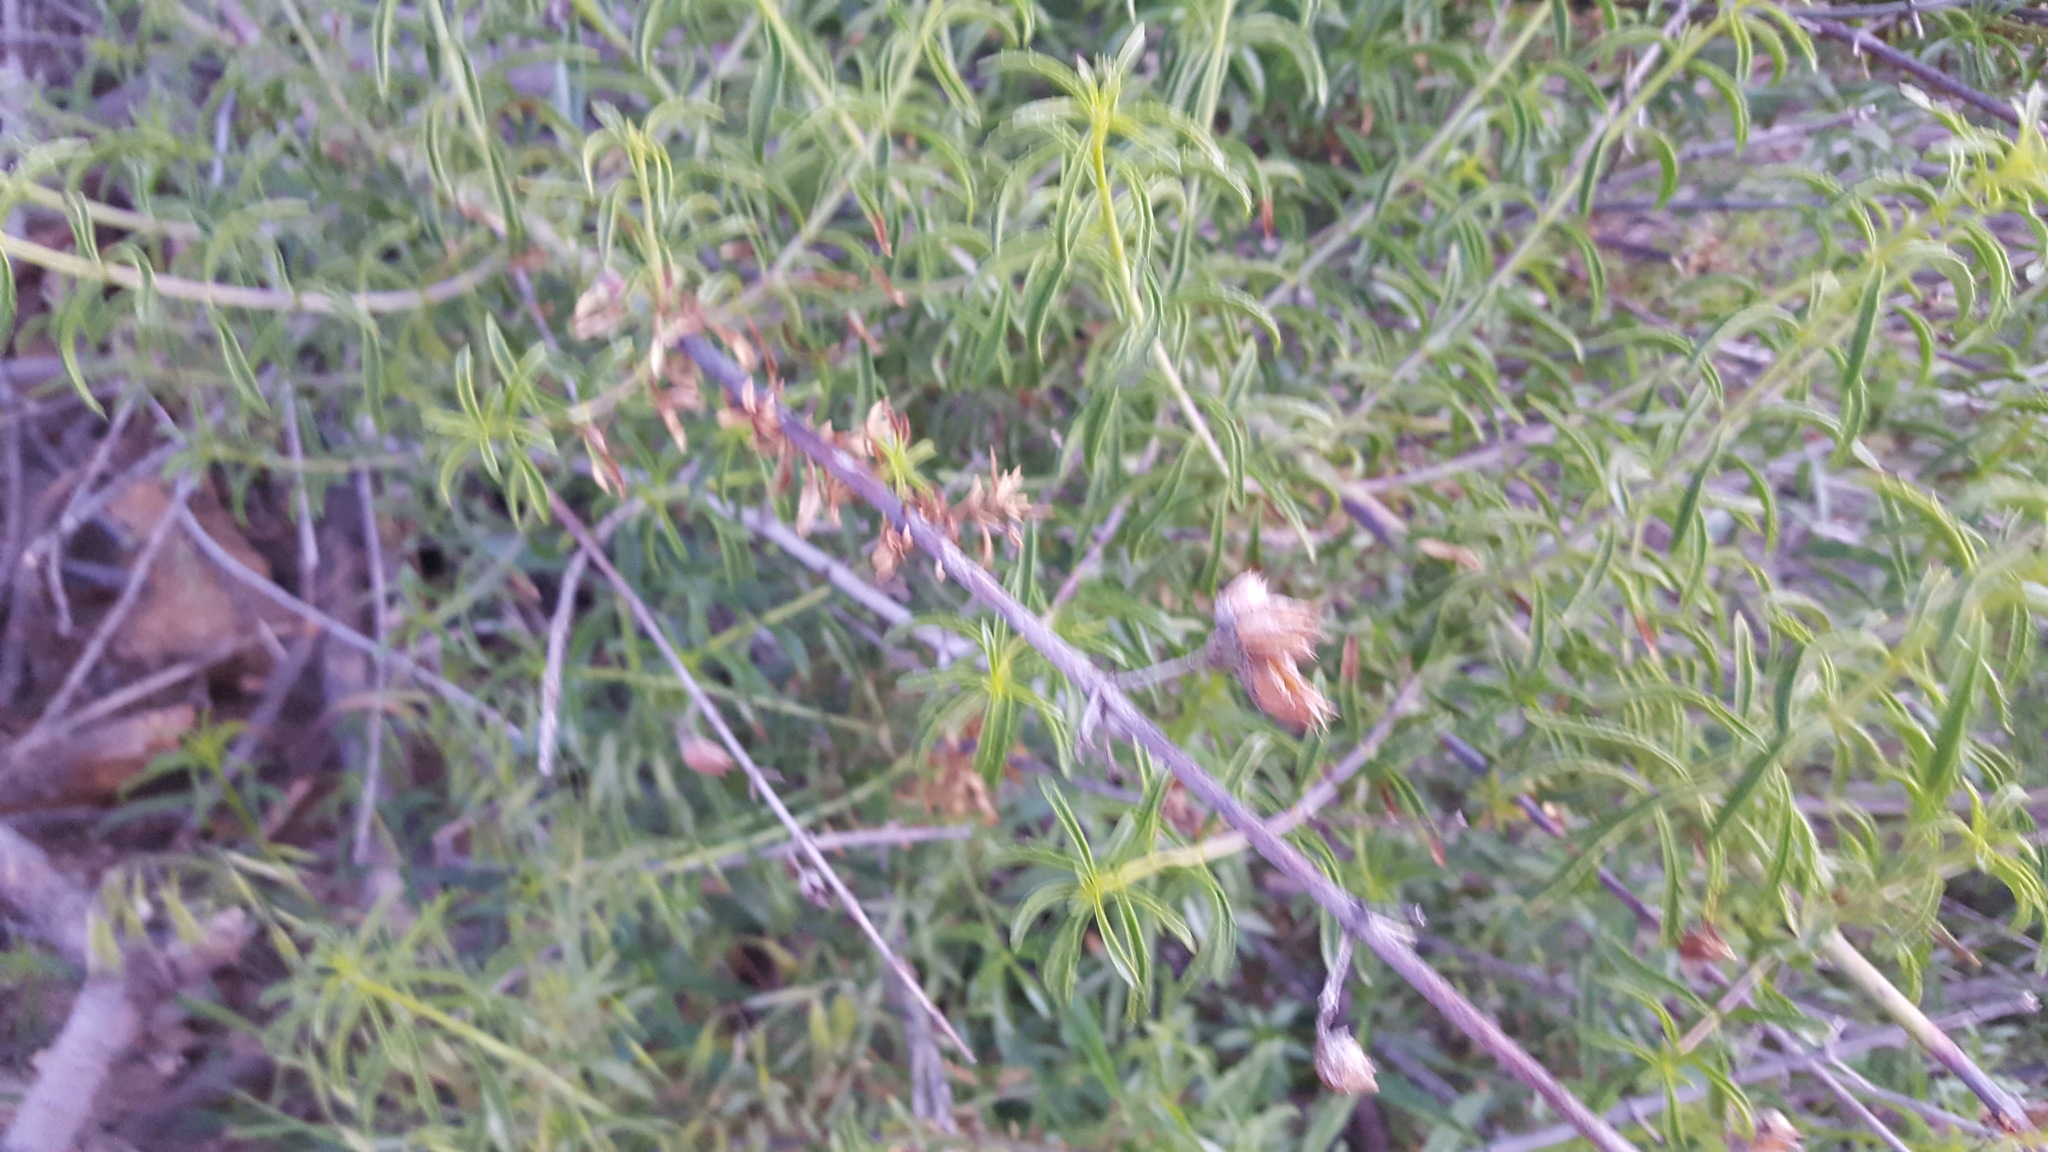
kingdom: Plantae
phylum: Tracheophyta
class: Magnoliopsida
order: Lamiales
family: Plantaginaceae
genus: Keckiella
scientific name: Keckiella ternata
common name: Scarlet keckiella
